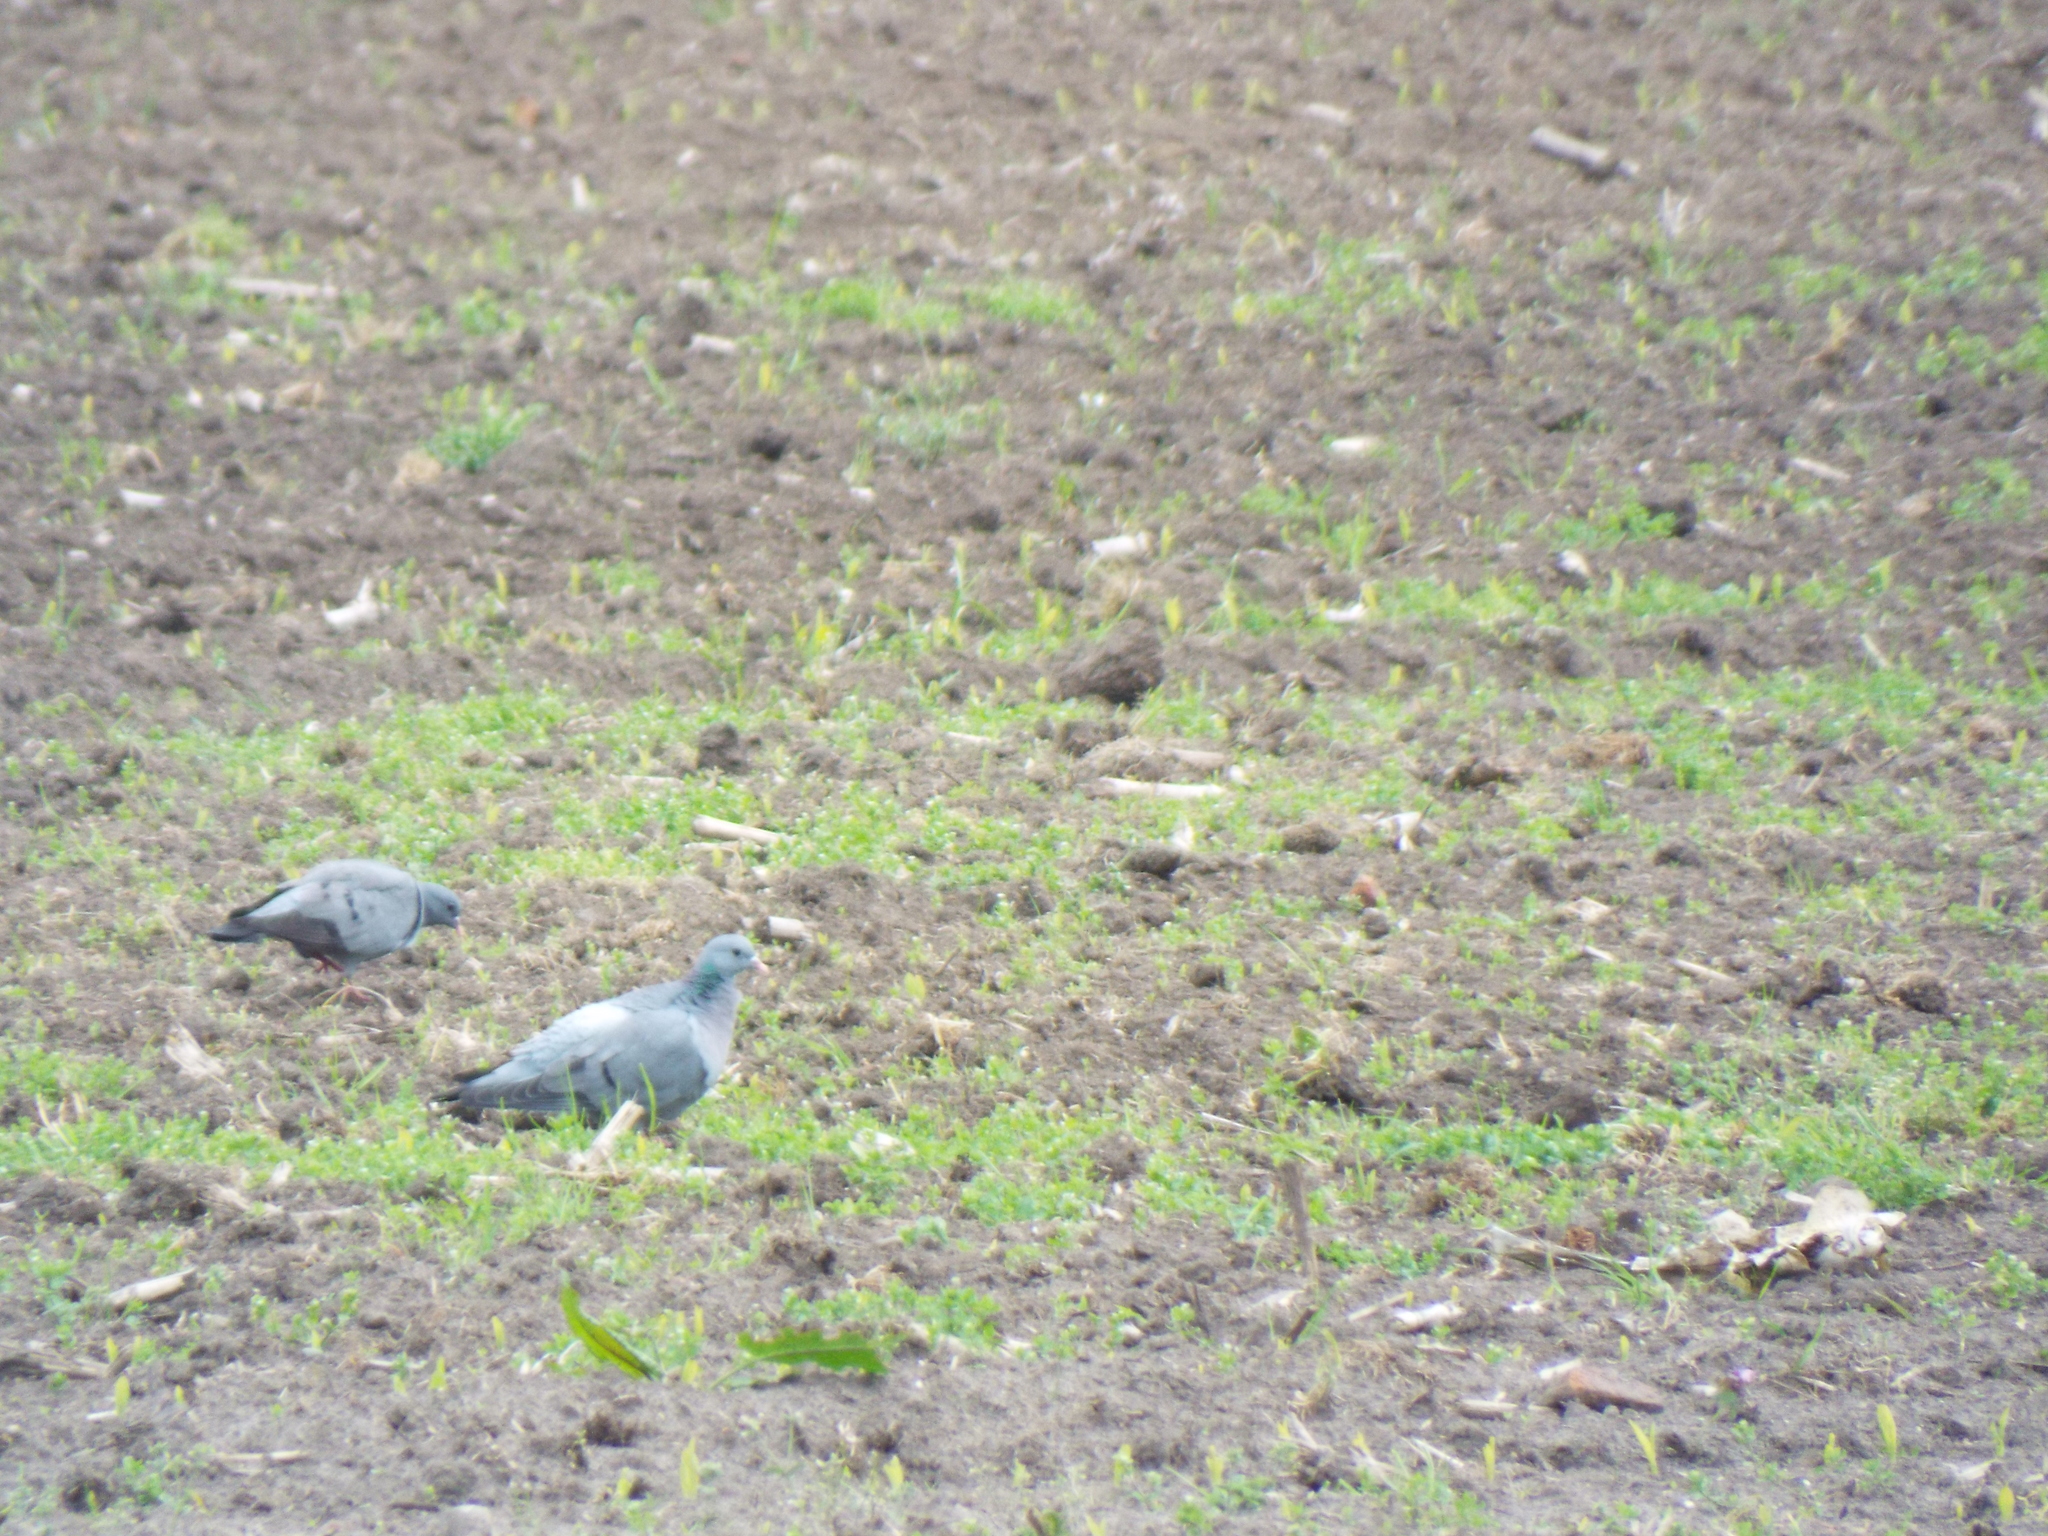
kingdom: Animalia
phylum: Chordata
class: Aves
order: Columbiformes
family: Columbidae
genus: Columba
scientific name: Columba oenas
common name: Stock dove
